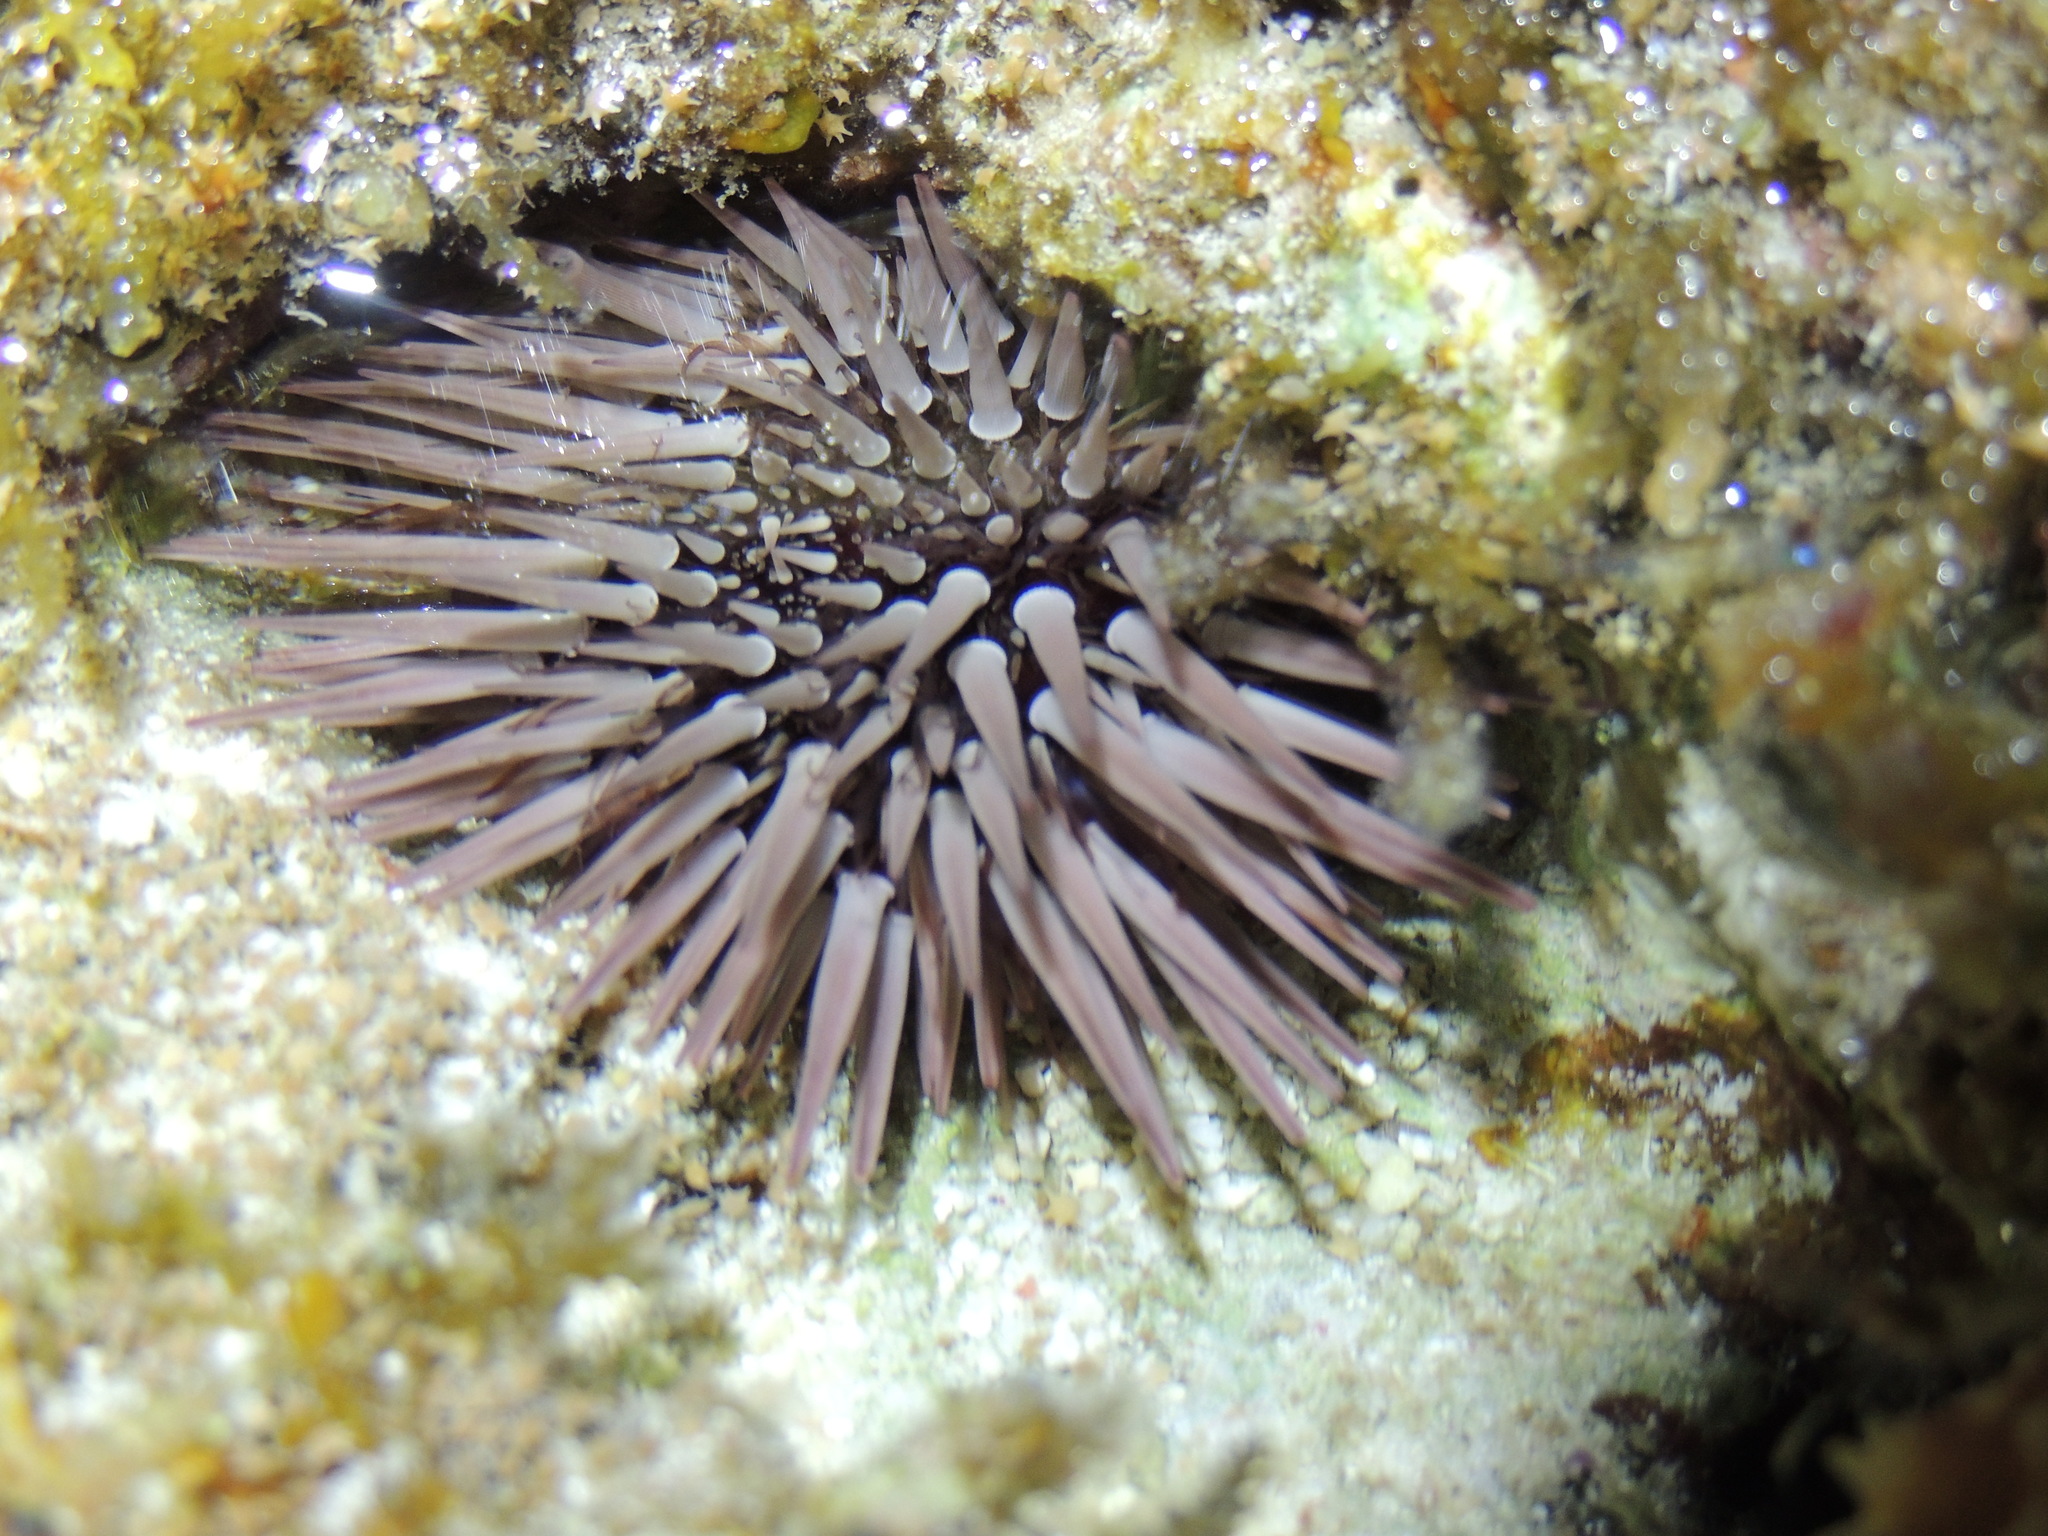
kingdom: Animalia
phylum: Echinodermata
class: Echinoidea
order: Camarodonta
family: Echinometridae
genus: Echinometra
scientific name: Echinometra mathaei
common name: Rock-boring urchin
